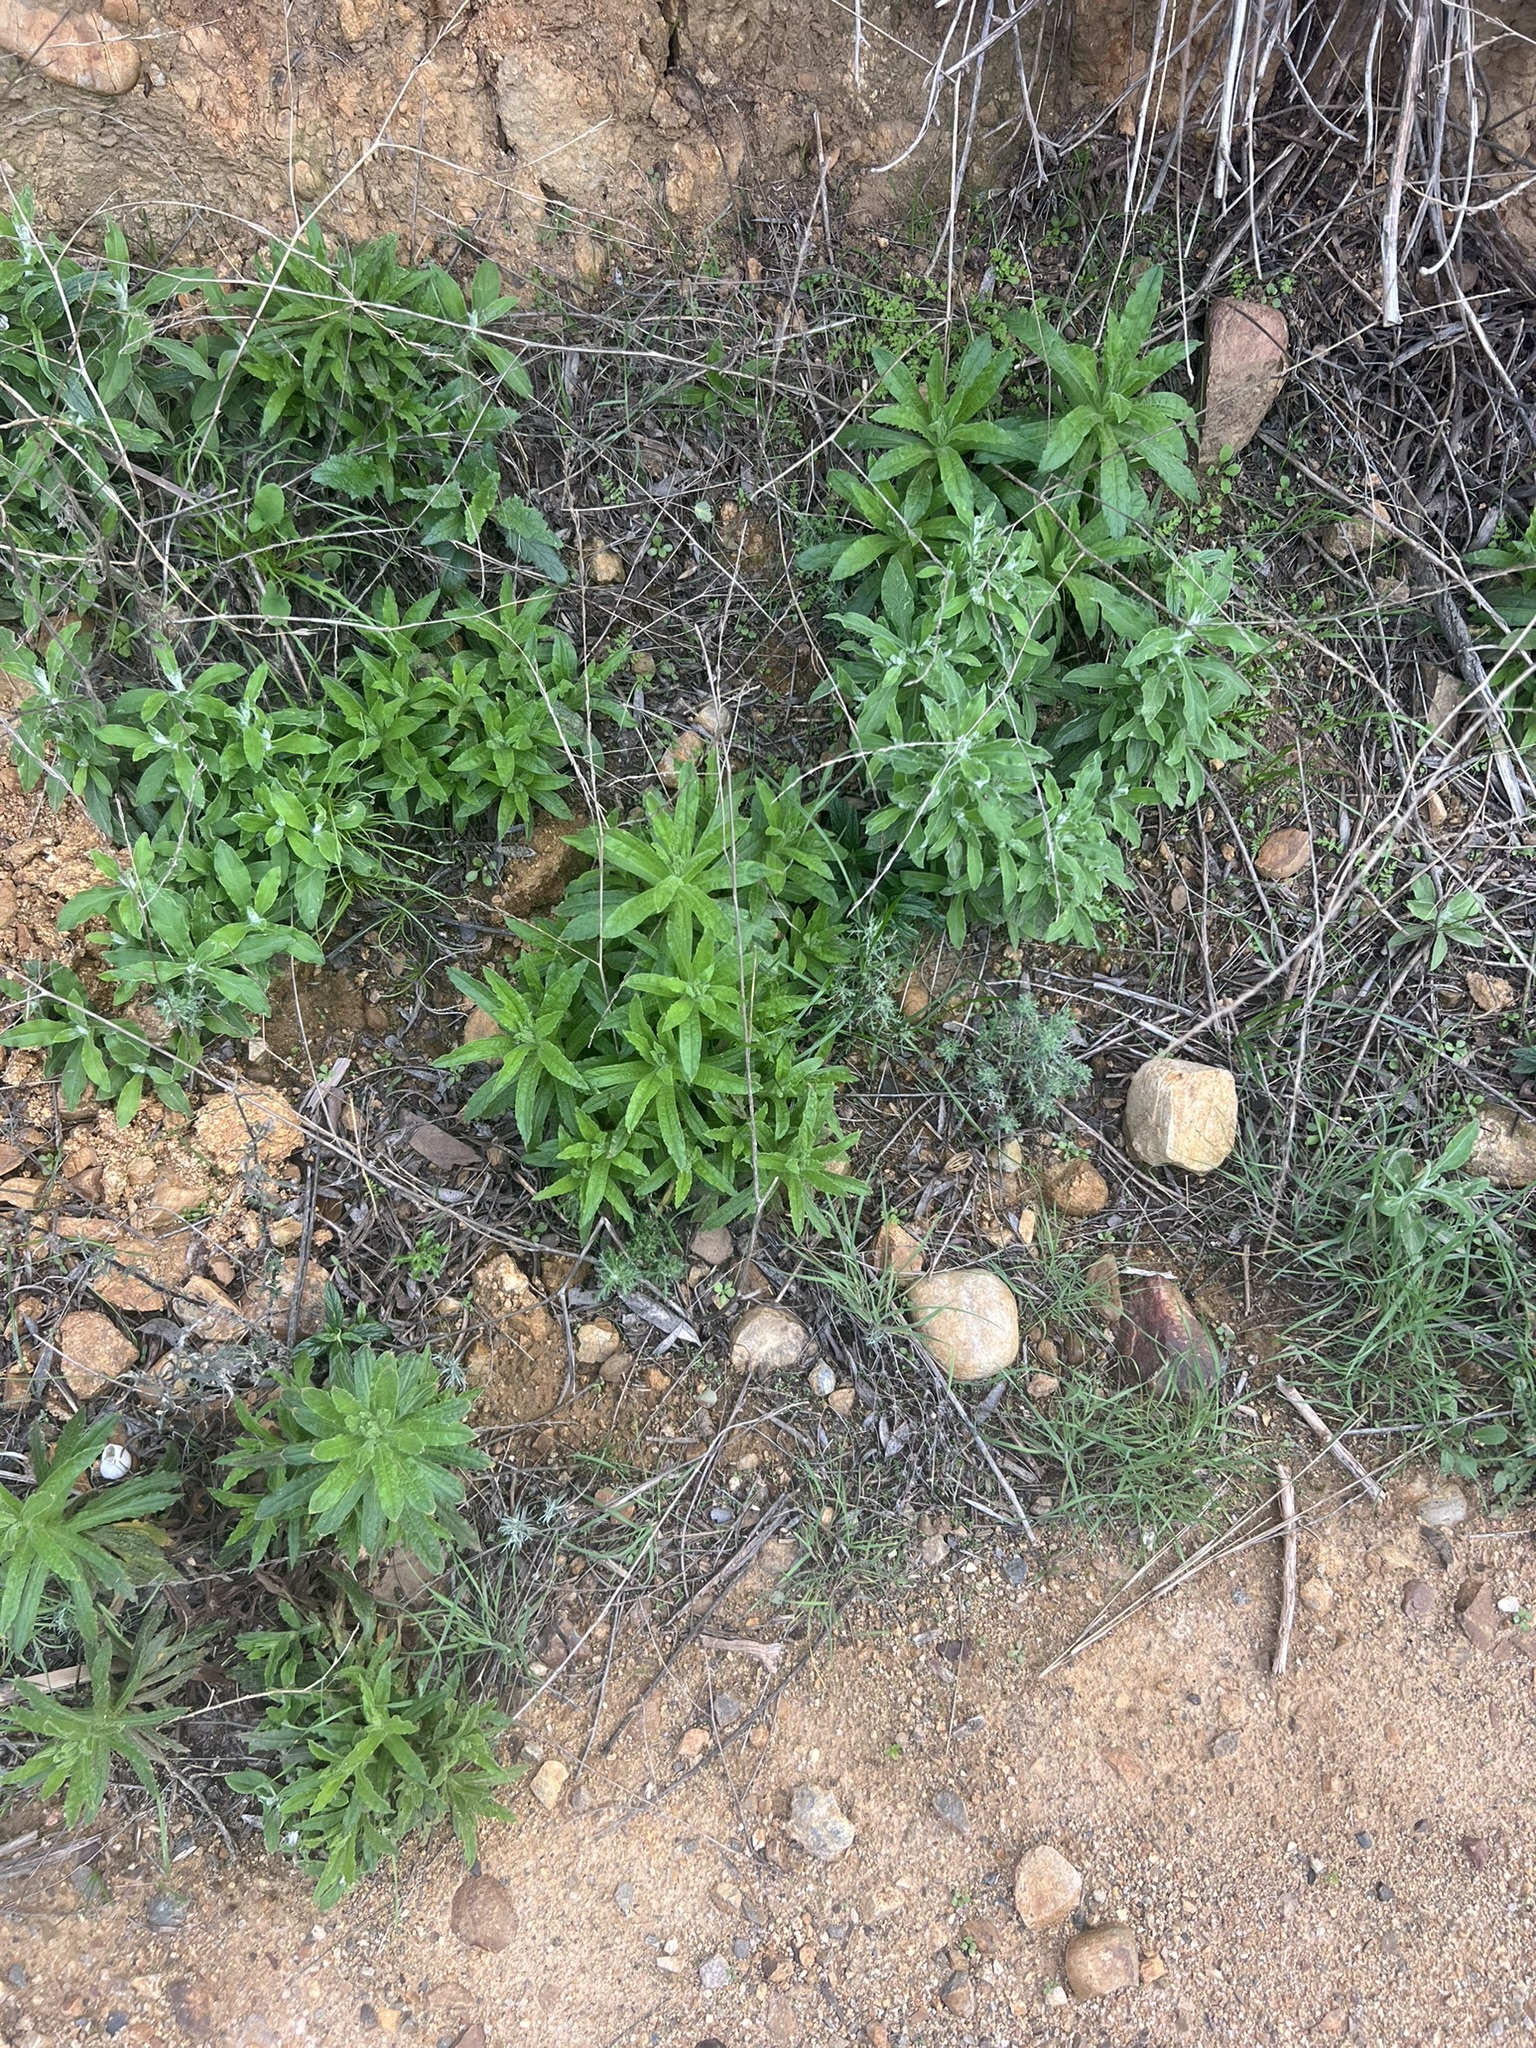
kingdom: Plantae
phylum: Tracheophyta
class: Magnoliopsida
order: Asterales
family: Asteraceae
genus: Pseudognaphalium
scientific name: Pseudognaphalium biolettii
